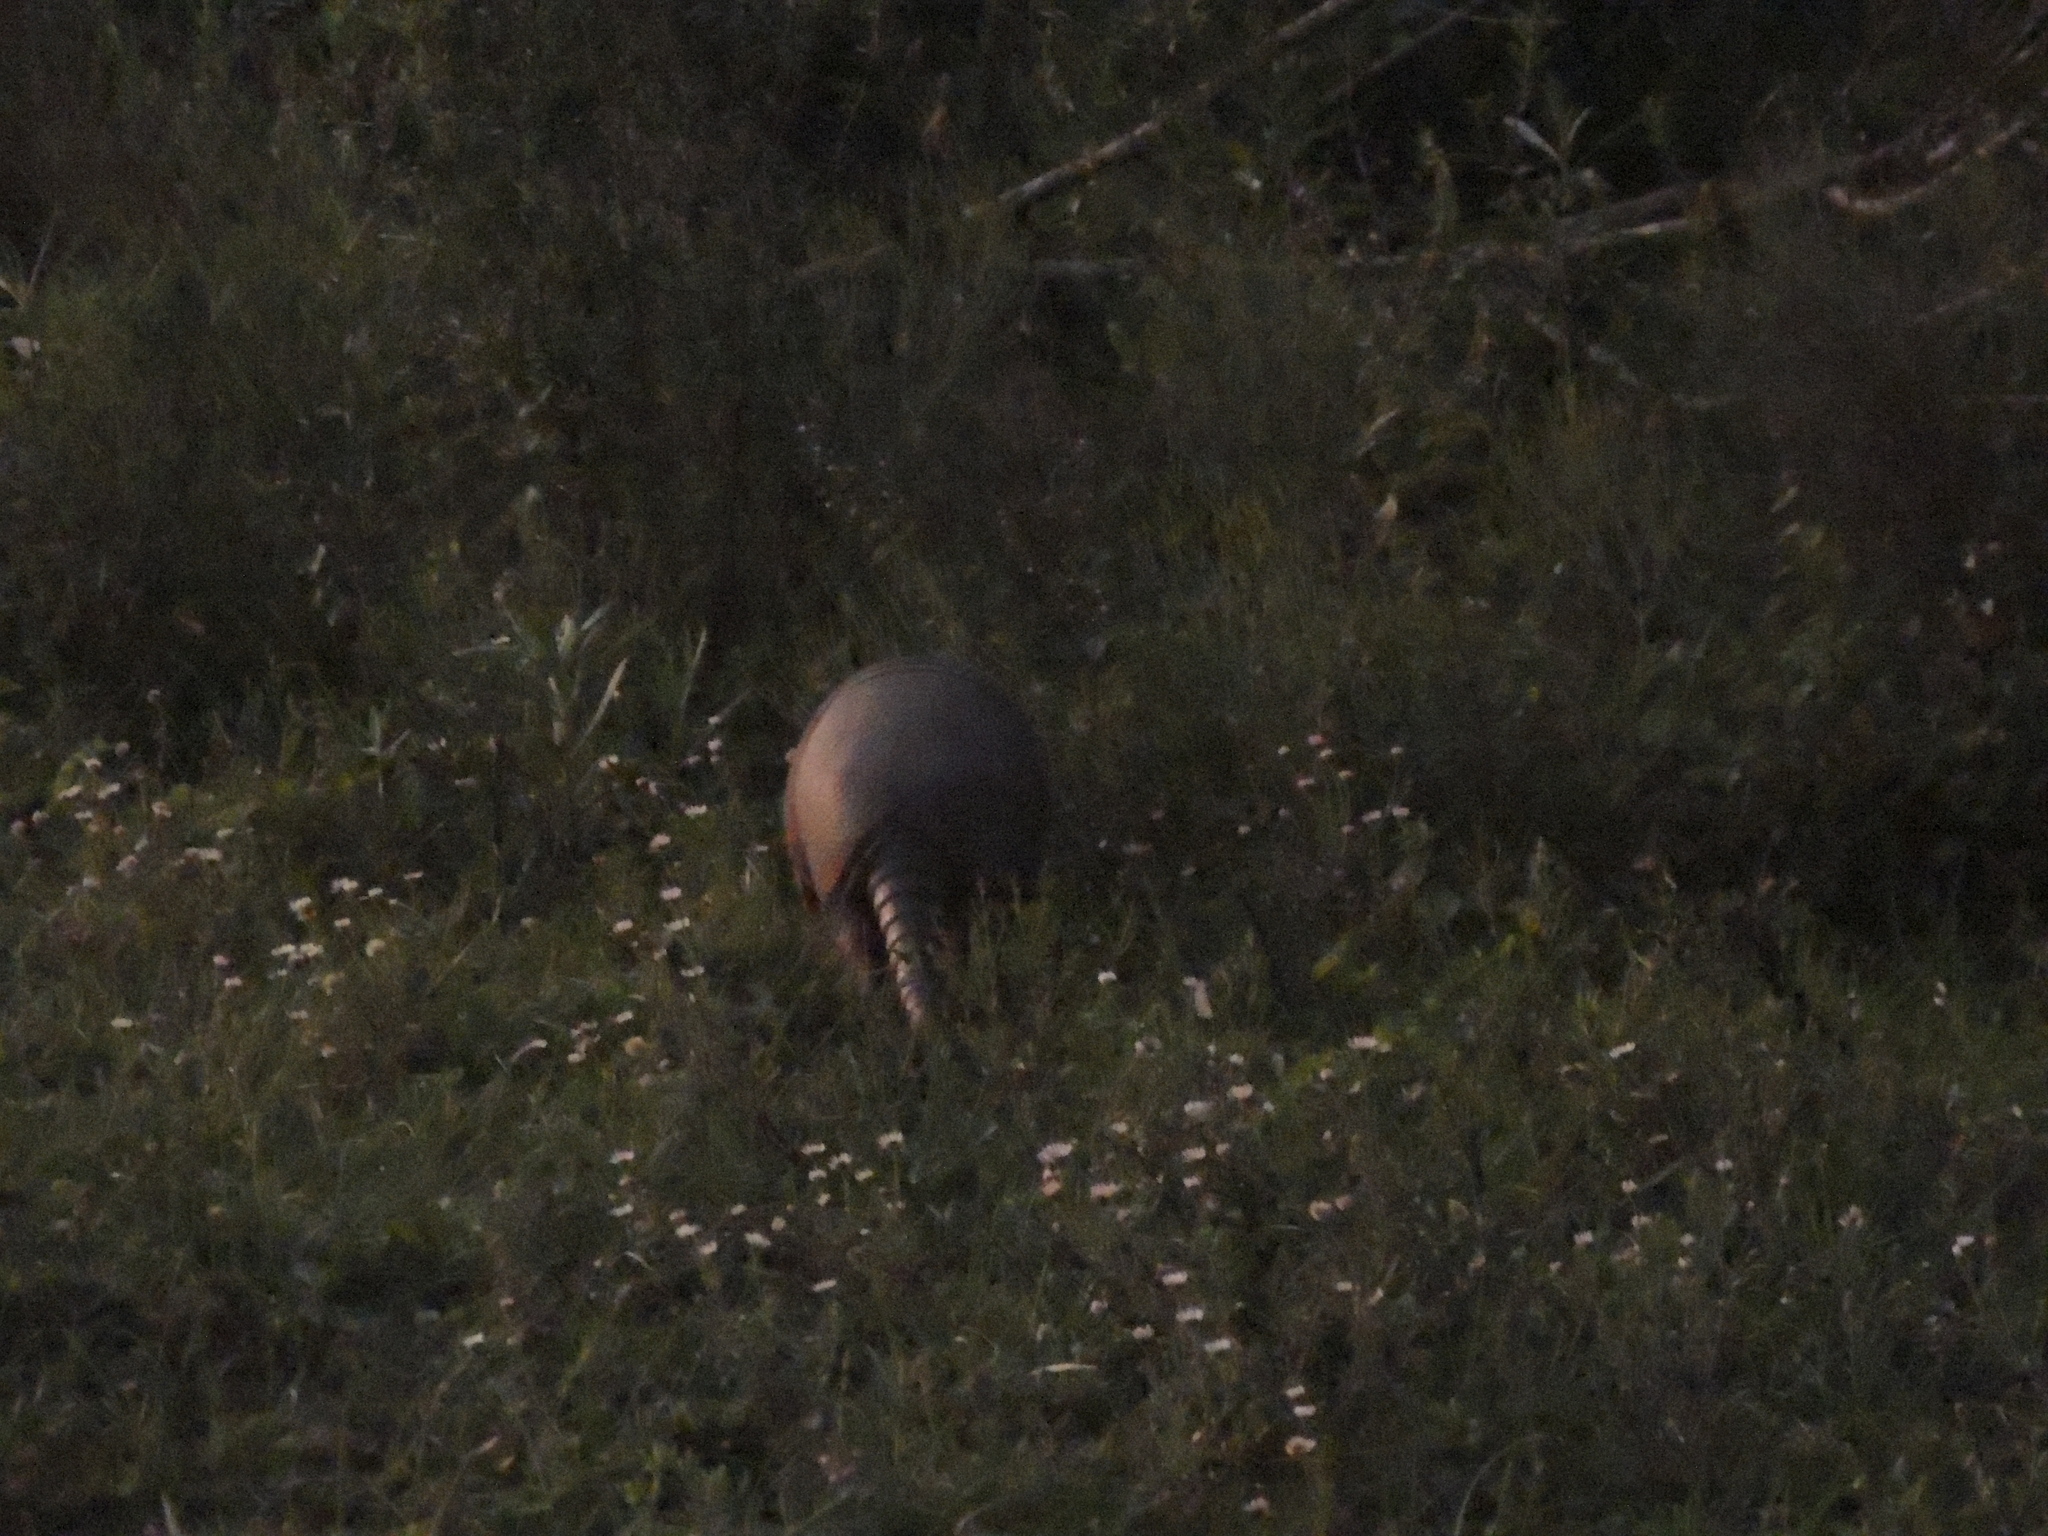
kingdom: Animalia
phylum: Chordata
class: Mammalia
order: Cingulata
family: Dasypodidae
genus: Dasypus
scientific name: Dasypus novemcinctus
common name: Nine-banded armadillo
